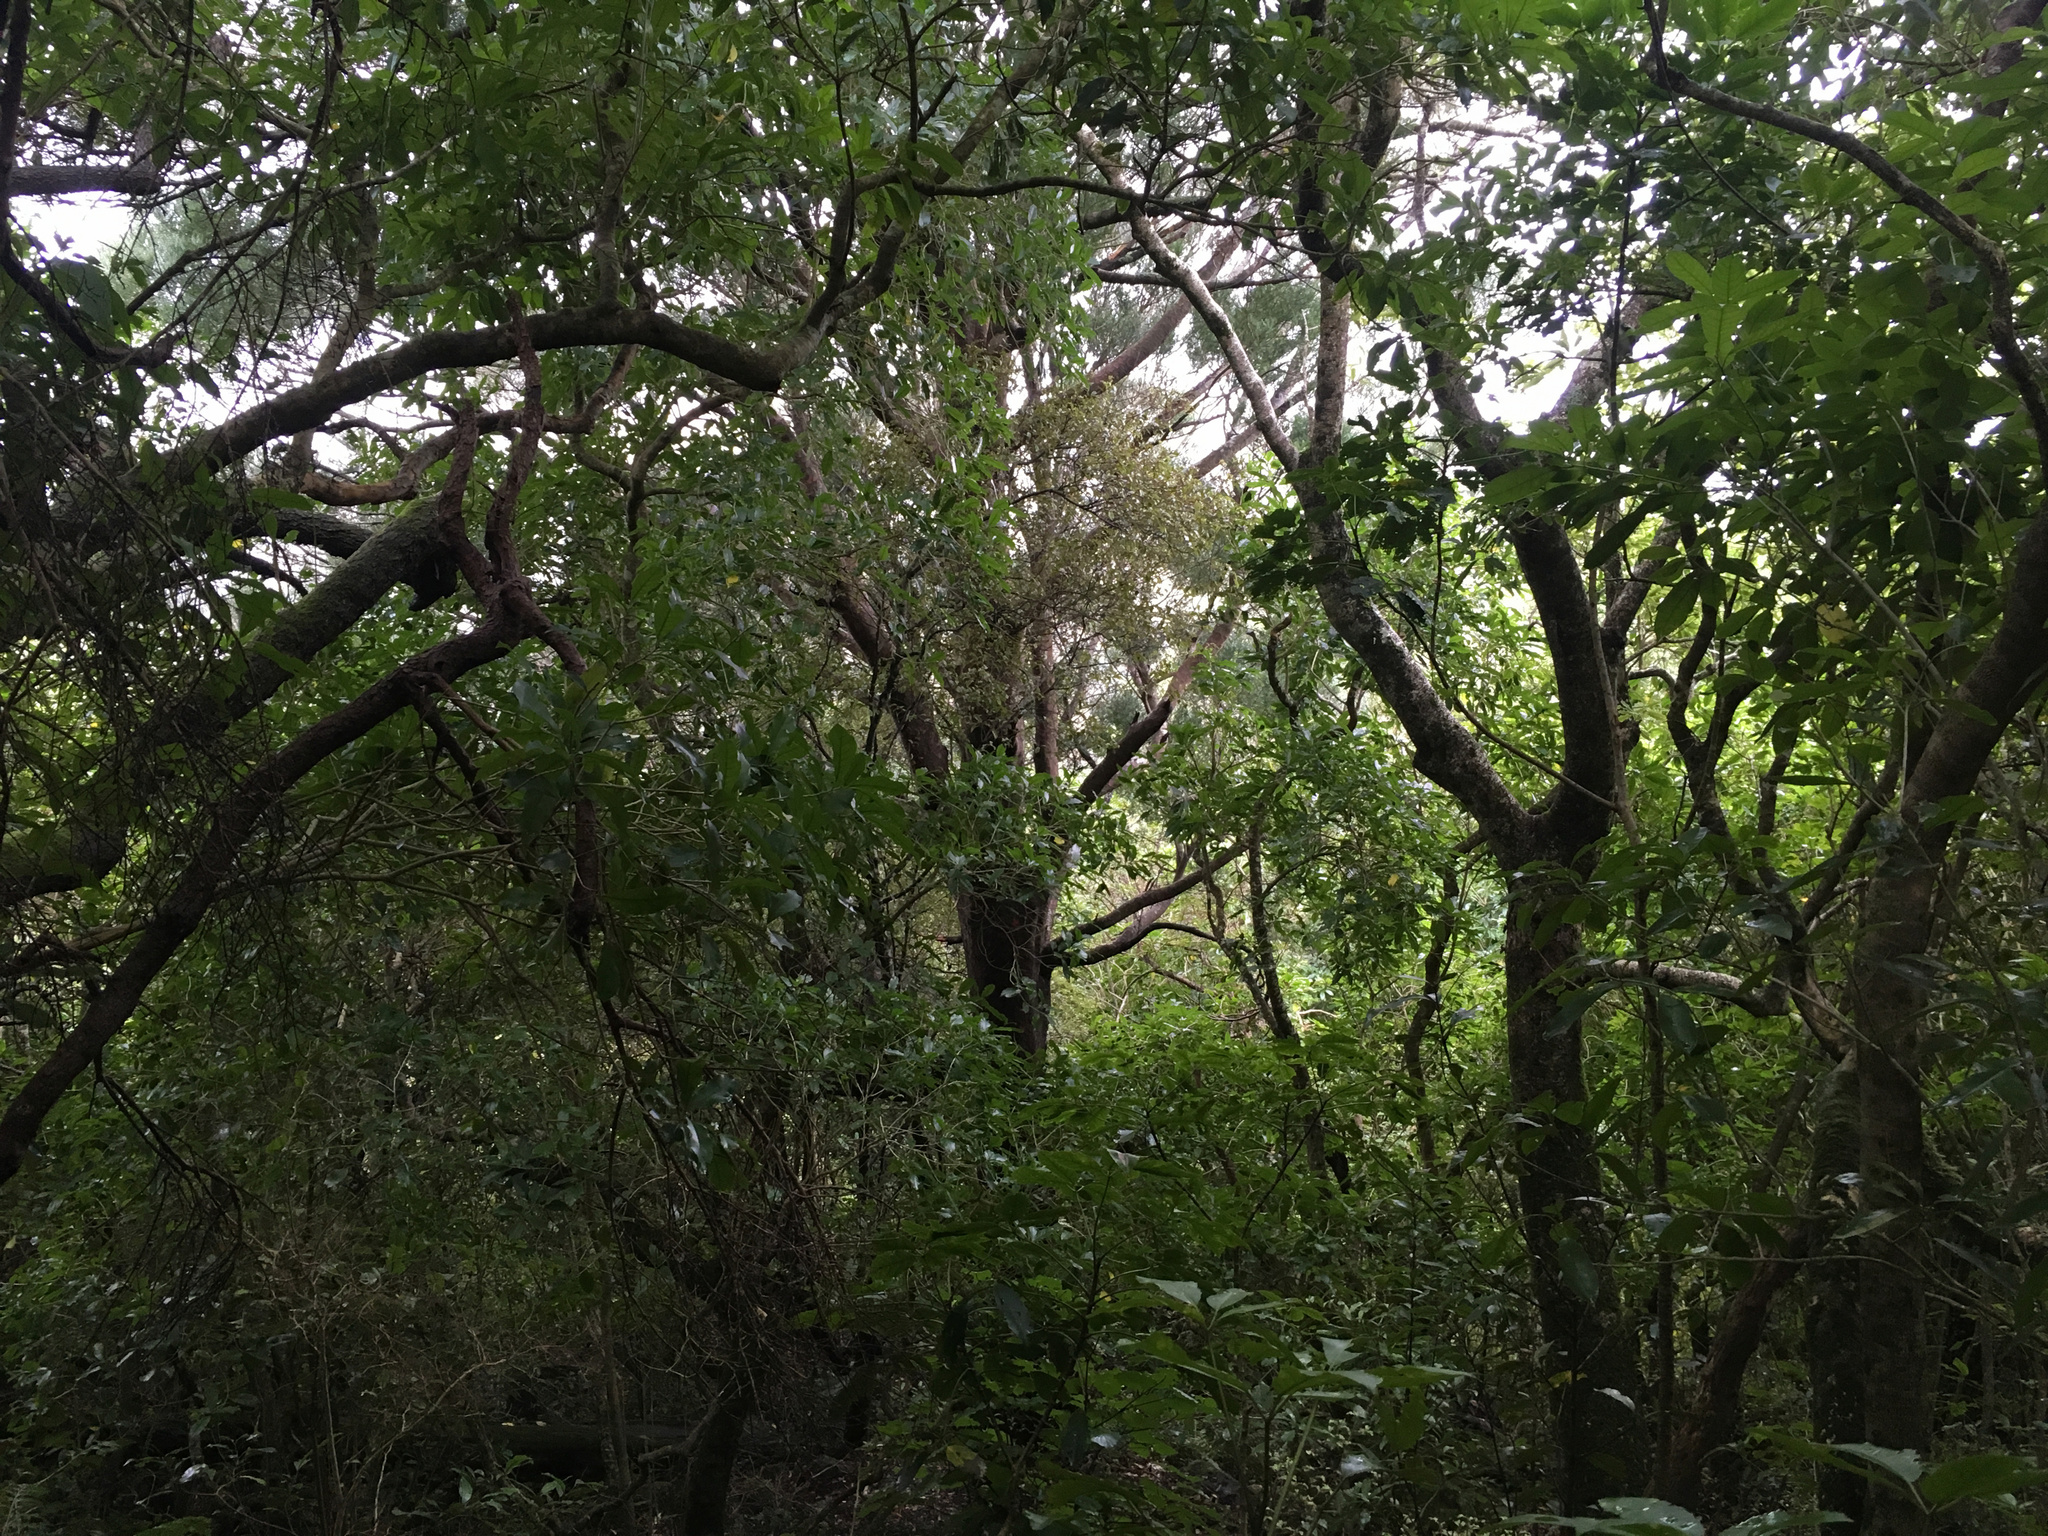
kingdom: Plantae
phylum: Tracheophyta
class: Pinopsida
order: Pinales
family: Podocarpaceae
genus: Prumnopitys
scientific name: Prumnopitys taxifolia
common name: Matai
